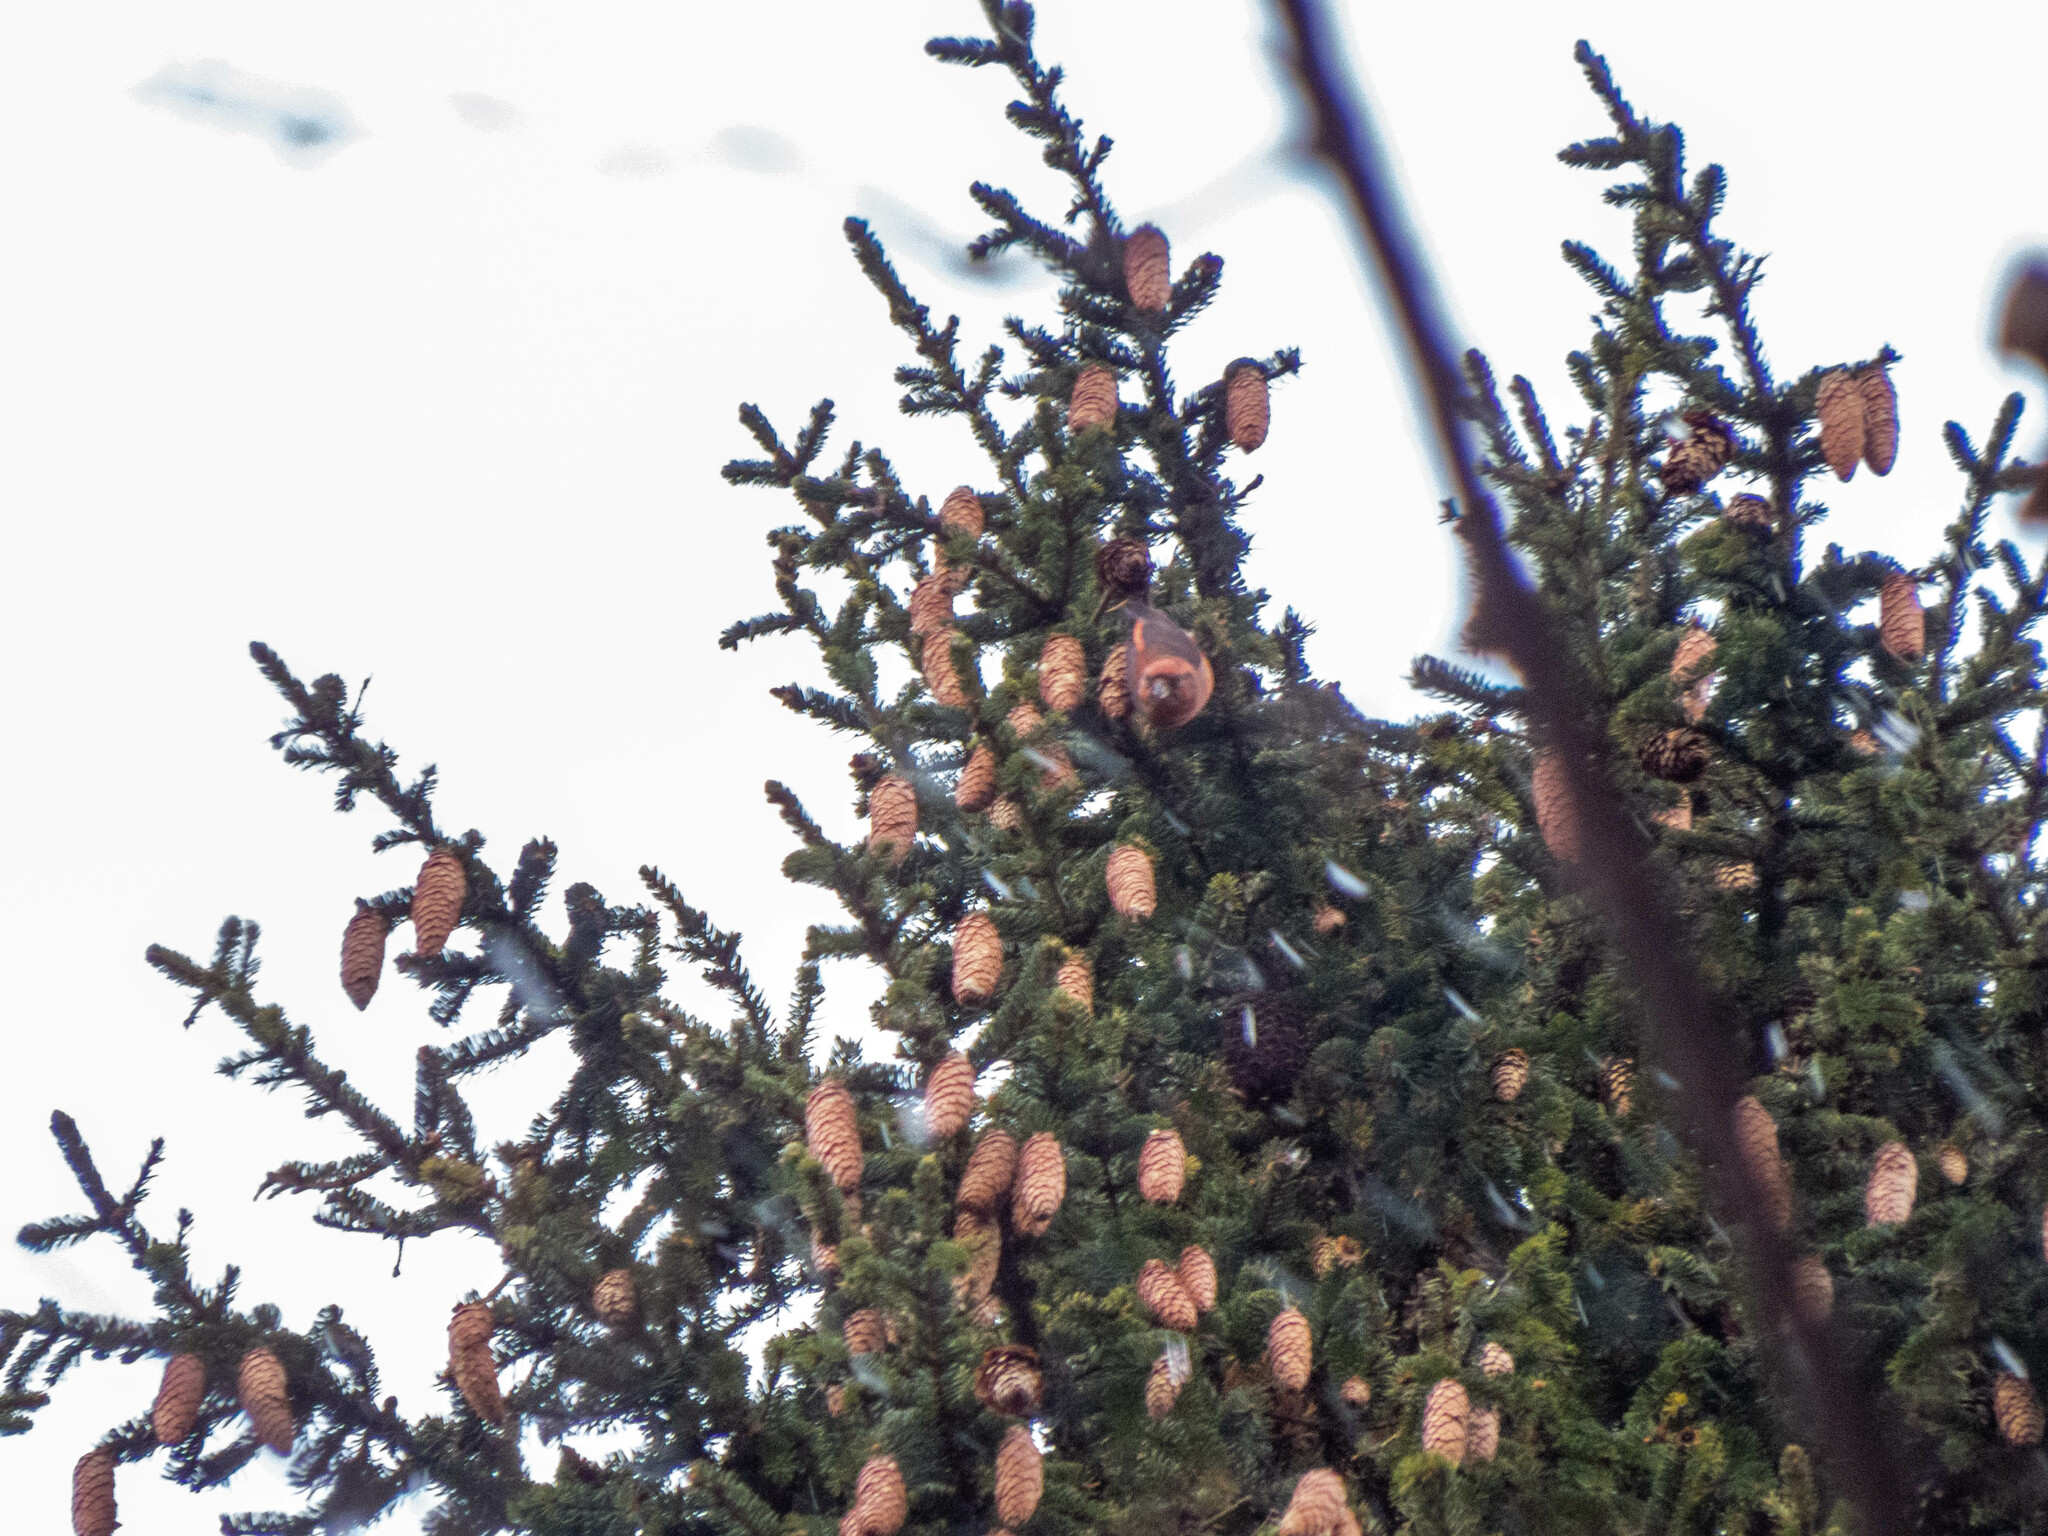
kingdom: Animalia
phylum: Chordata
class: Aves
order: Passeriformes
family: Fringillidae
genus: Loxia
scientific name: Loxia curvirostra
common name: Red crossbill
